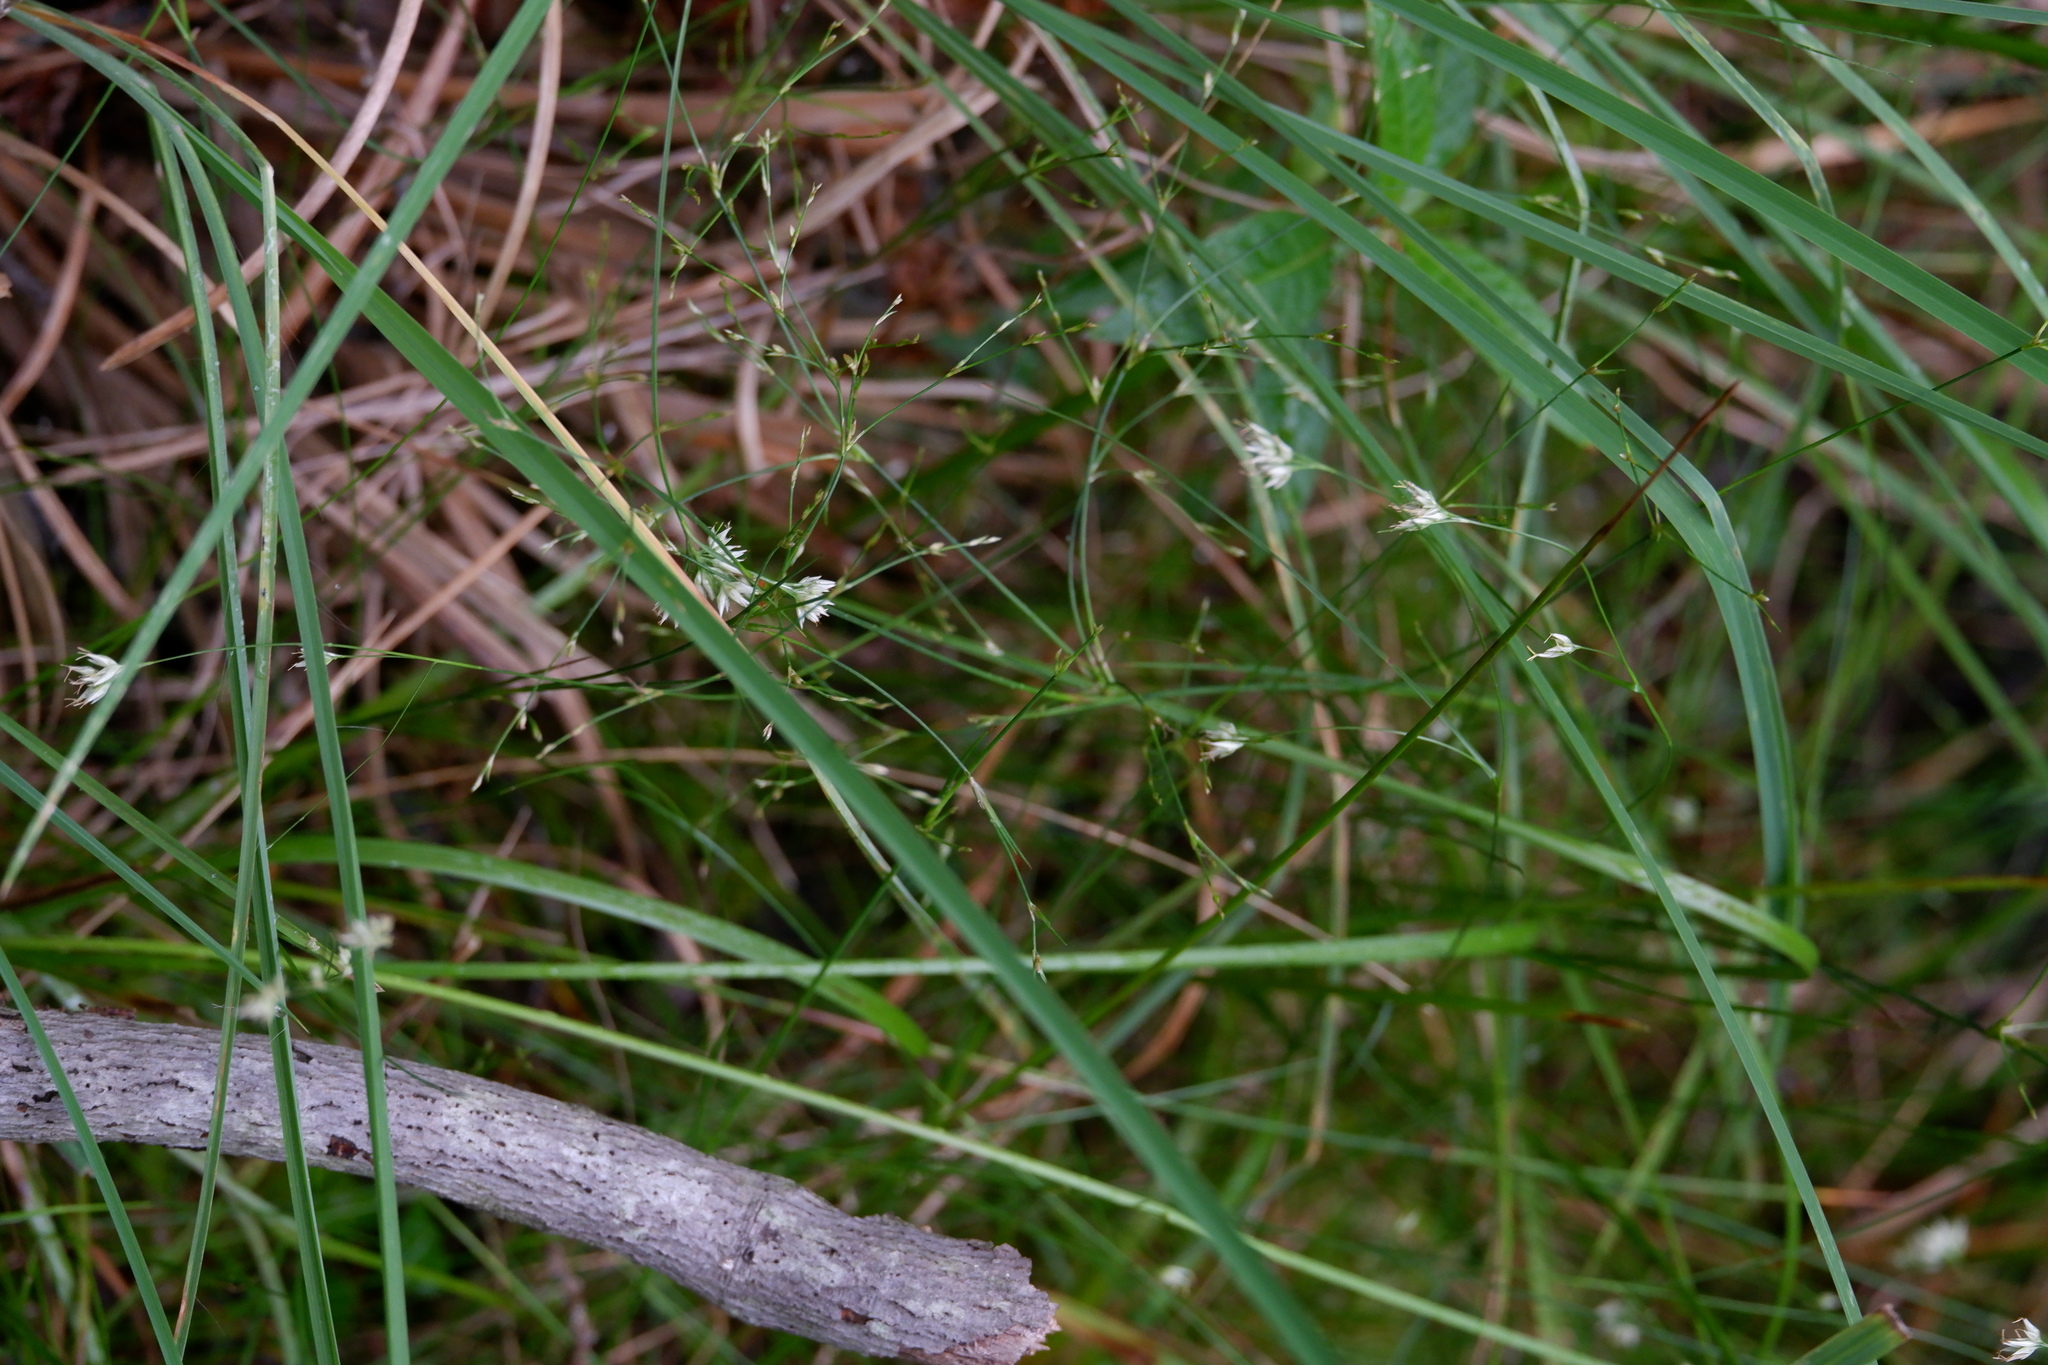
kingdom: Plantae
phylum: Tracheophyta
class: Liliopsida
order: Poales
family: Cyperaceae
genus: Rhynchospora
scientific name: Rhynchospora alba
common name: White beak-sedge
